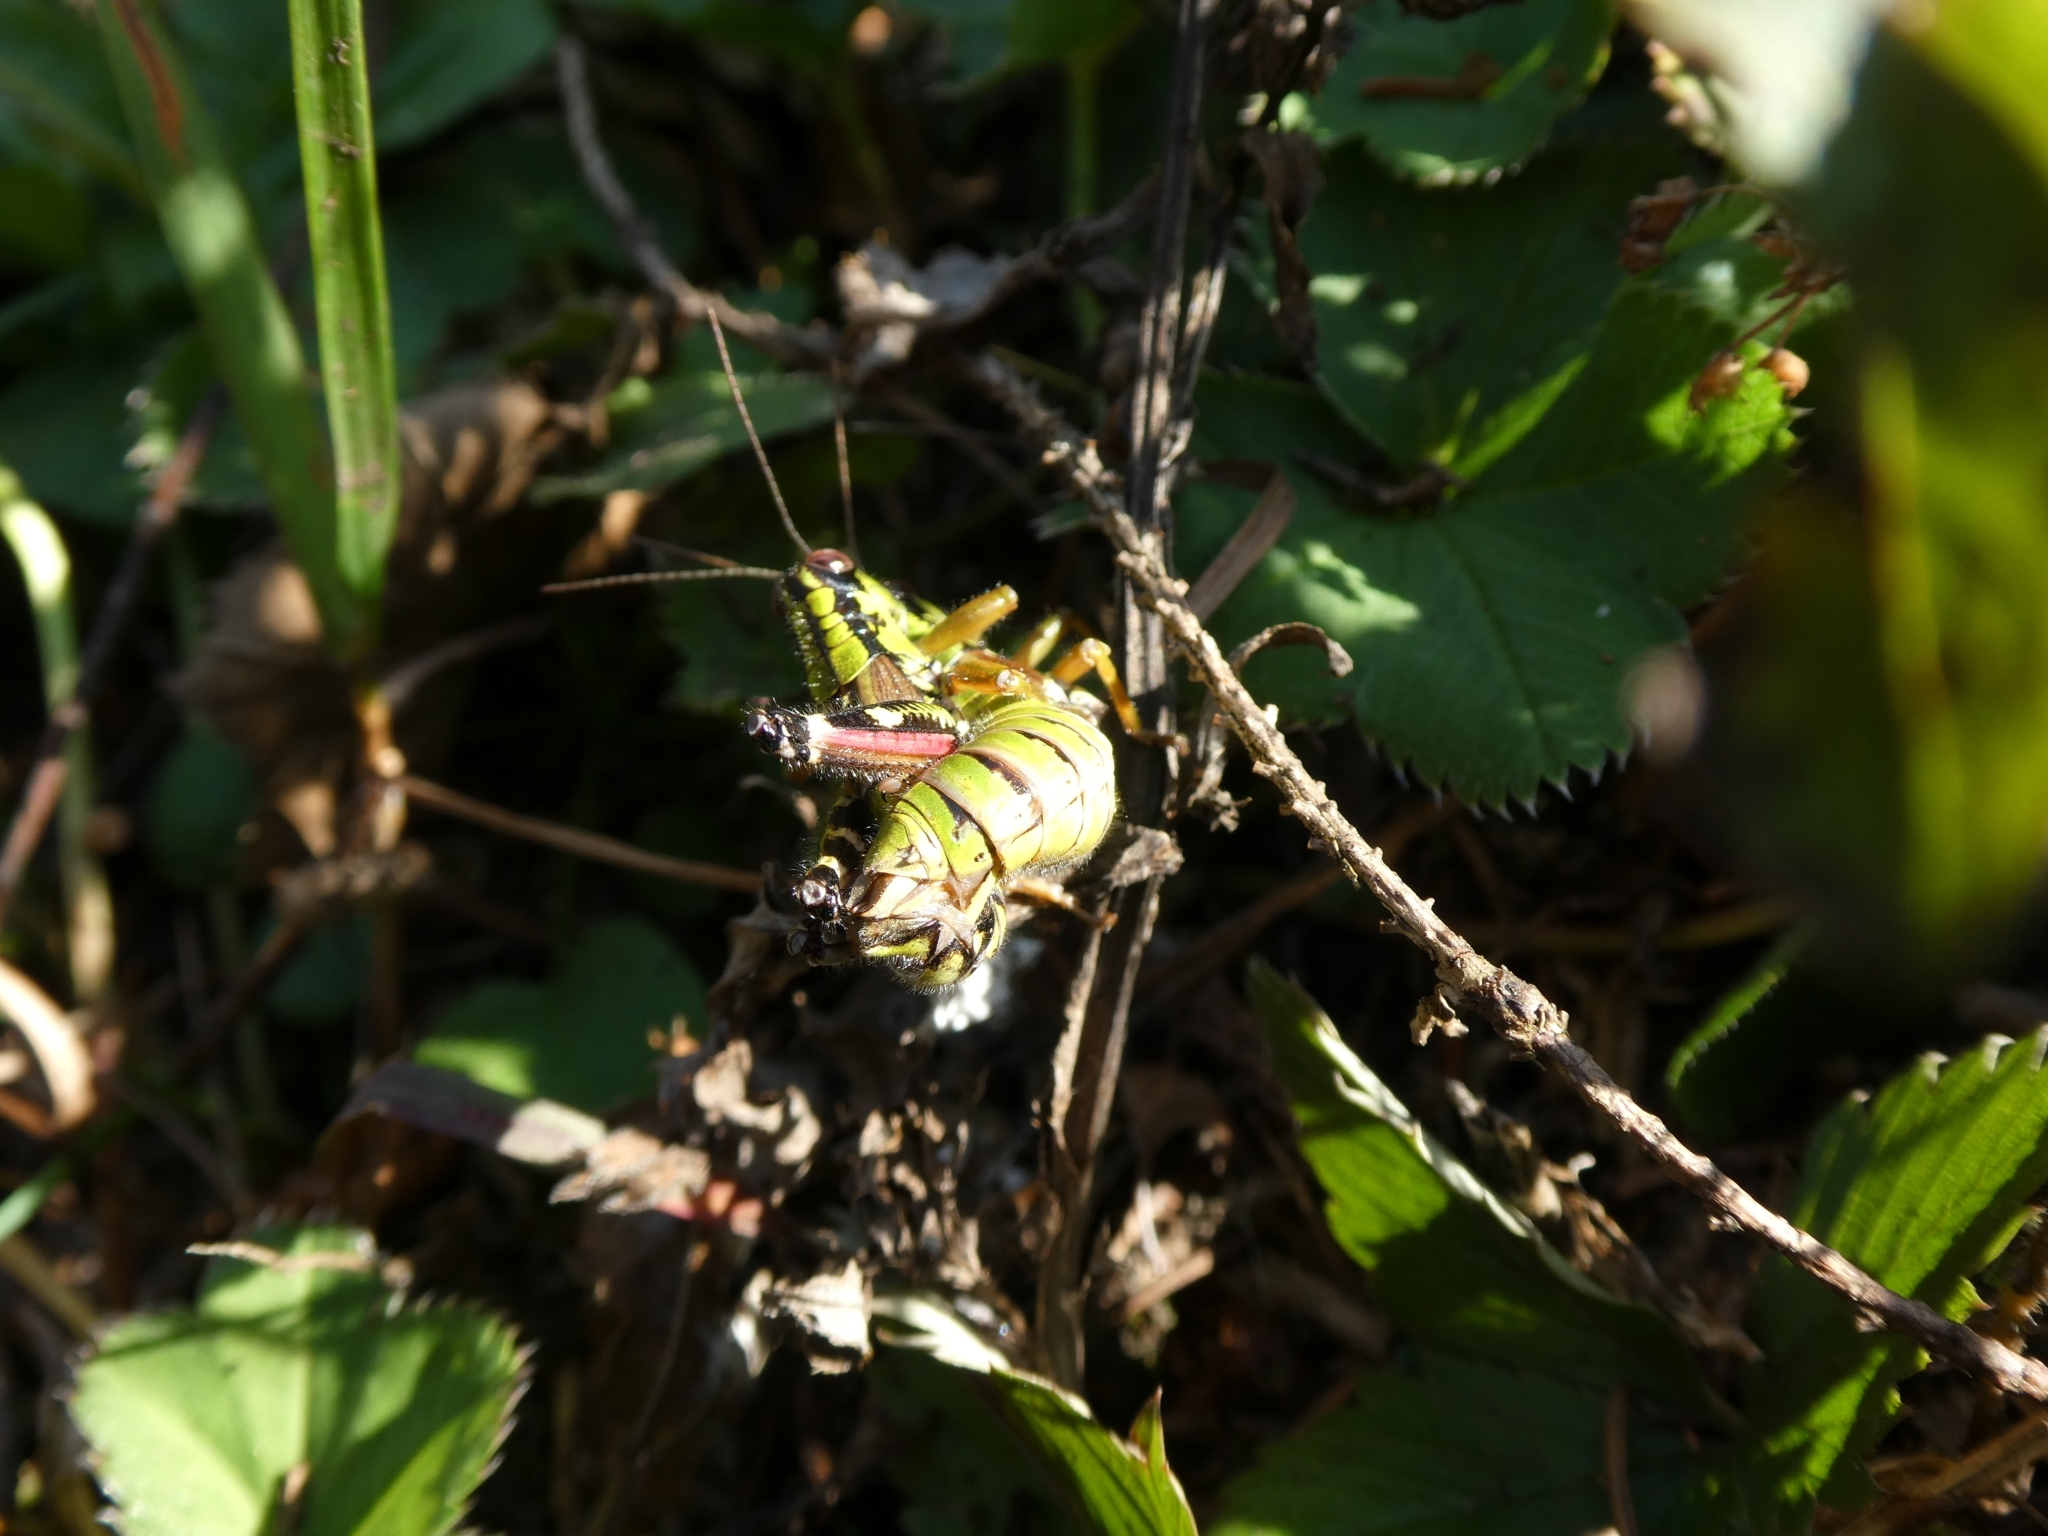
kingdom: Animalia
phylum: Arthropoda
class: Insecta
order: Orthoptera
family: Acrididae
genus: Miramella
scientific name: Miramella alpina
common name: Green mountain grasshopper
